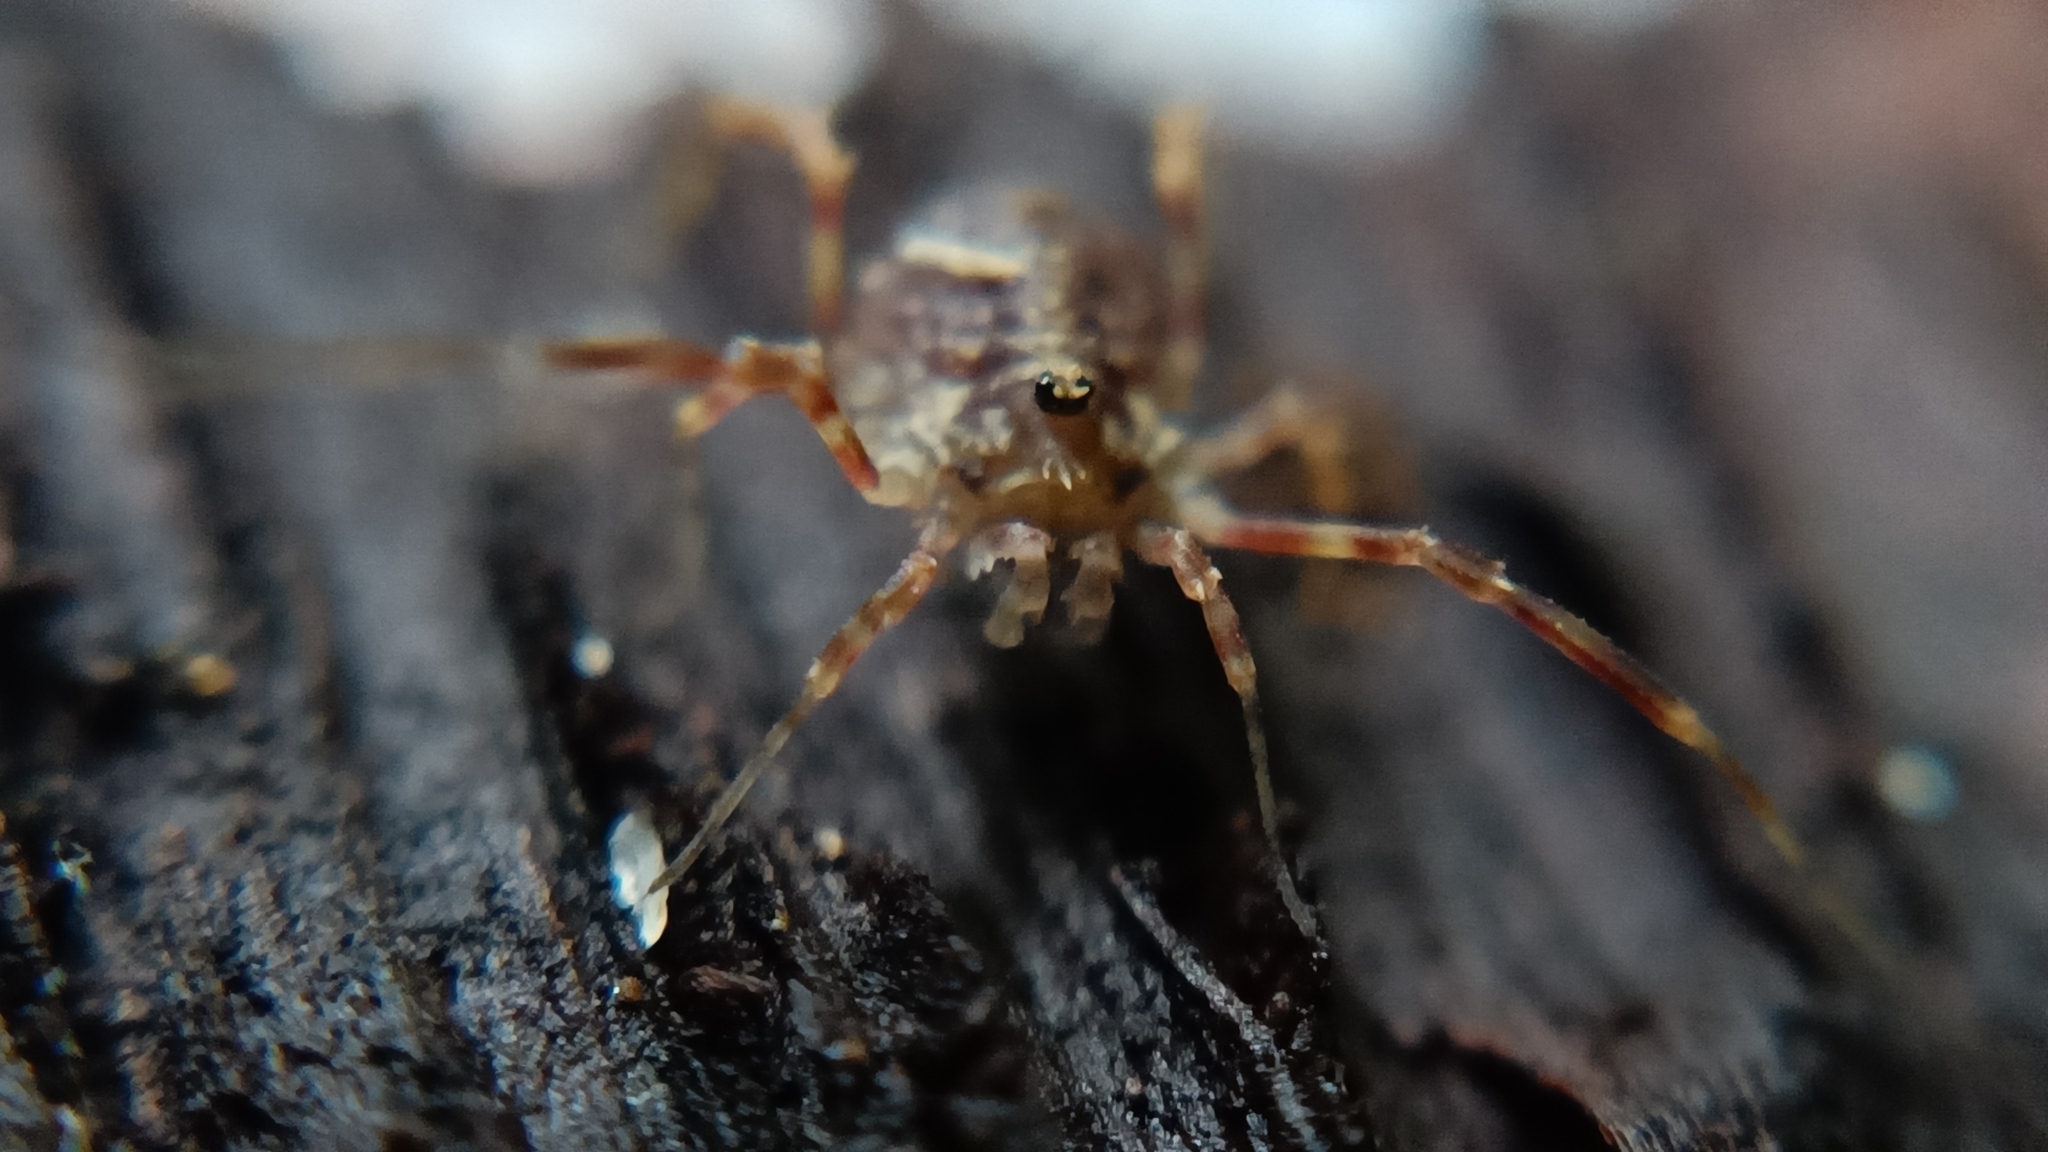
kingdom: Animalia
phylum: Arthropoda
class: Arachnida
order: Opiliones
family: Phalangiidae
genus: Lophopilio
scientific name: Lophopilio palpinalis
